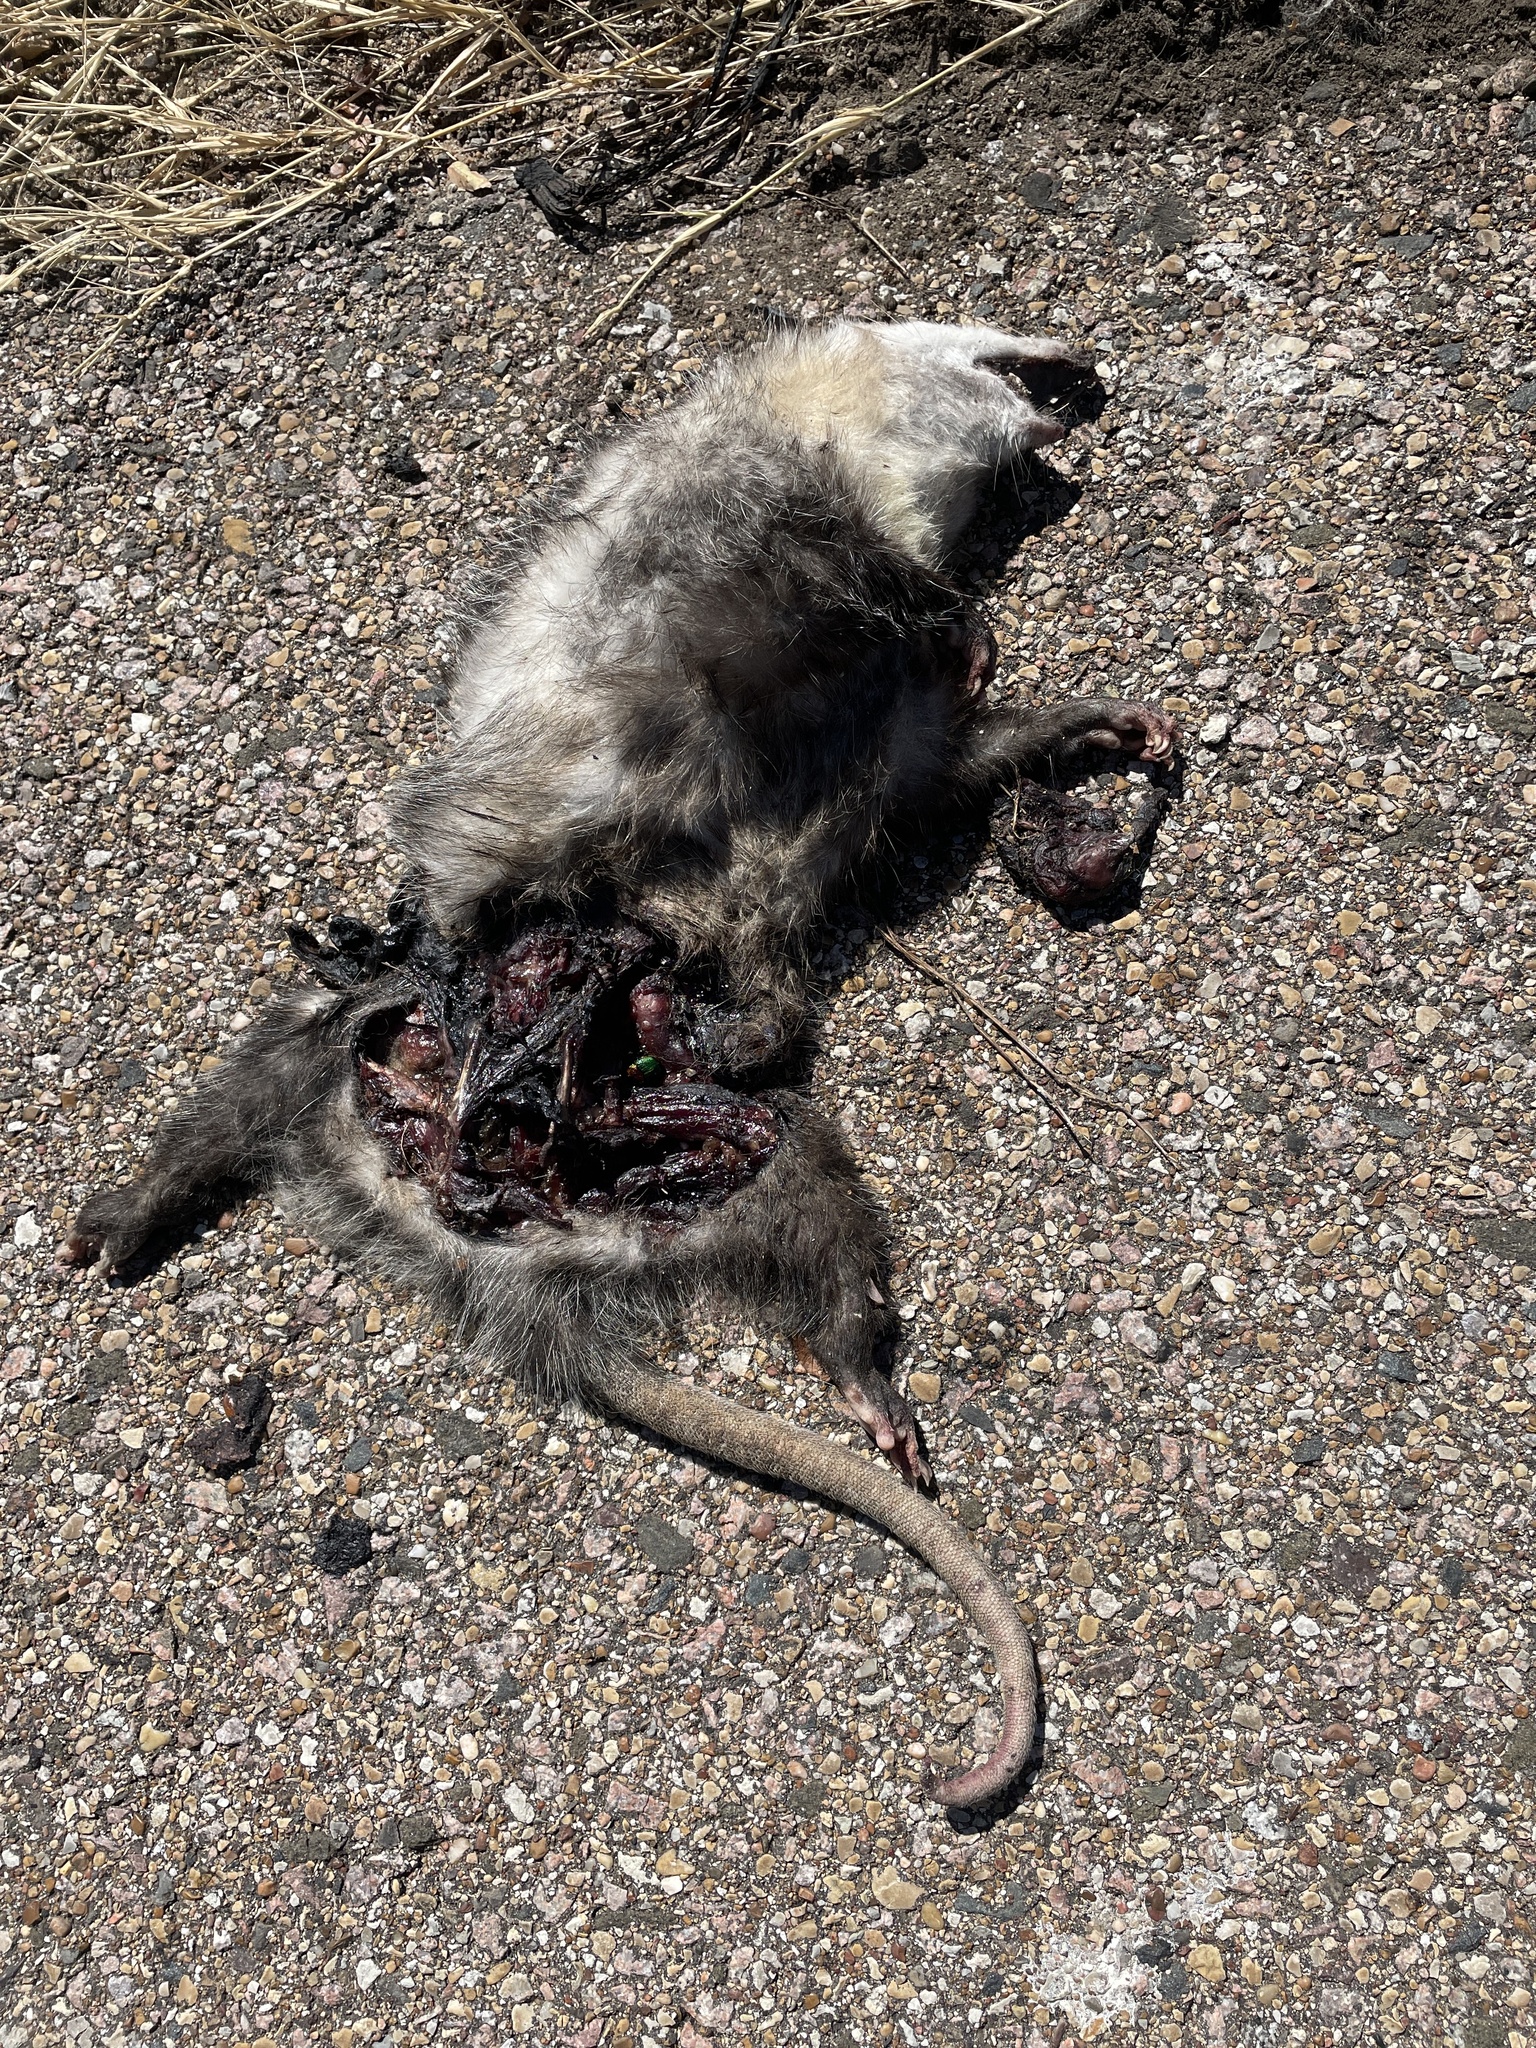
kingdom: Animalia
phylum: Chordata
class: Mammalia
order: Didelphimorphia
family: Didelphidae
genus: Didelphis
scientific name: Didelphis virginiana
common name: Virginia opossum
